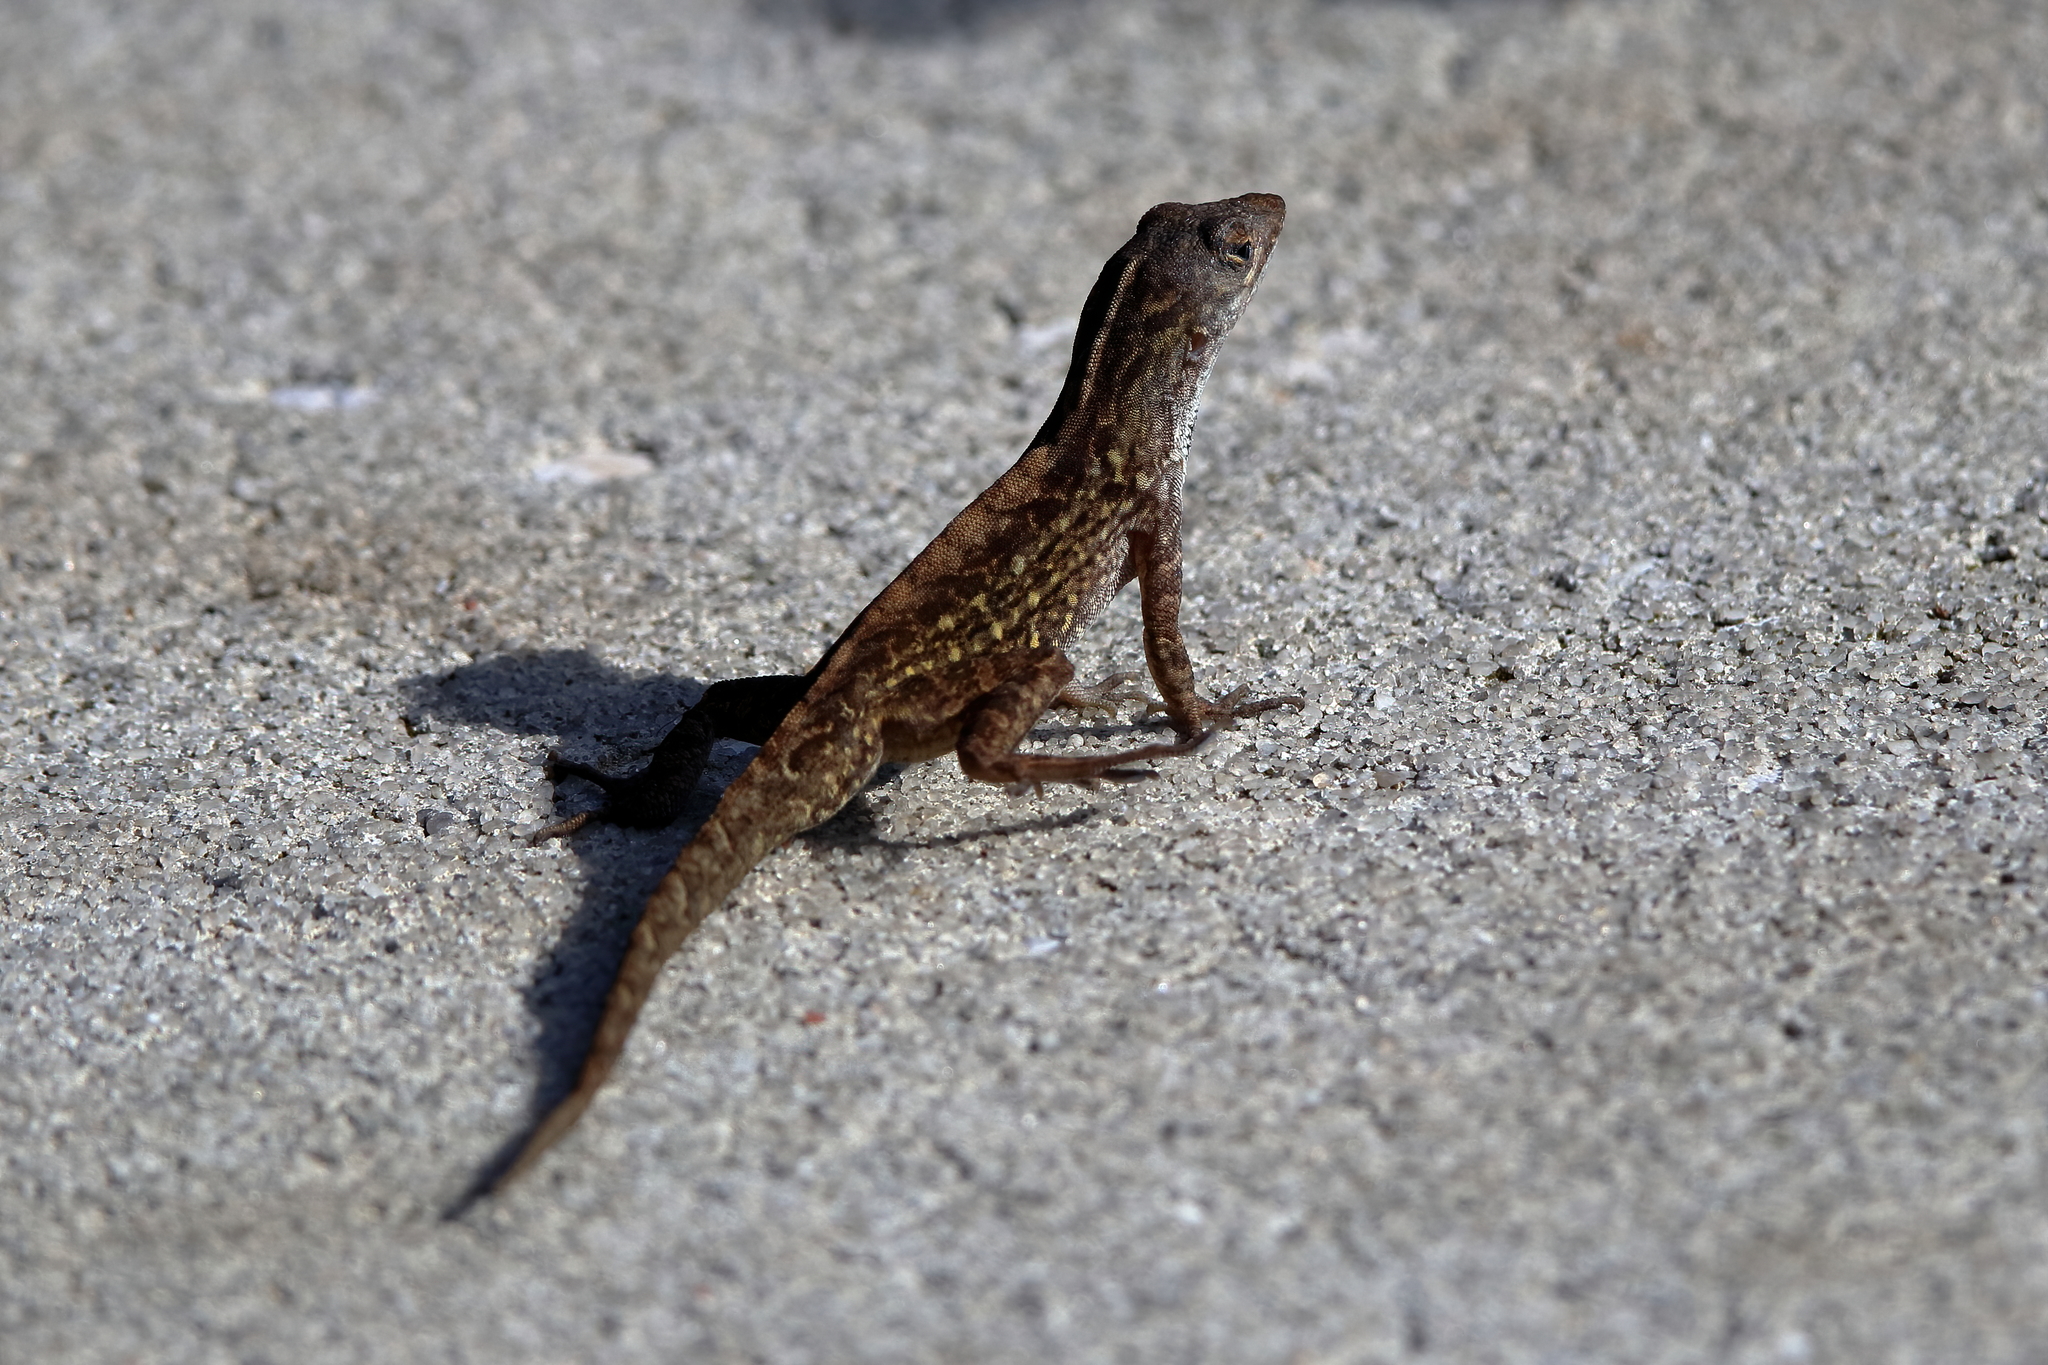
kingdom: Animalia
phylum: Chordata
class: Squamata
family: Dactyloidae
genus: Anolis
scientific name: Anolis sagrei
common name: Brown anole
